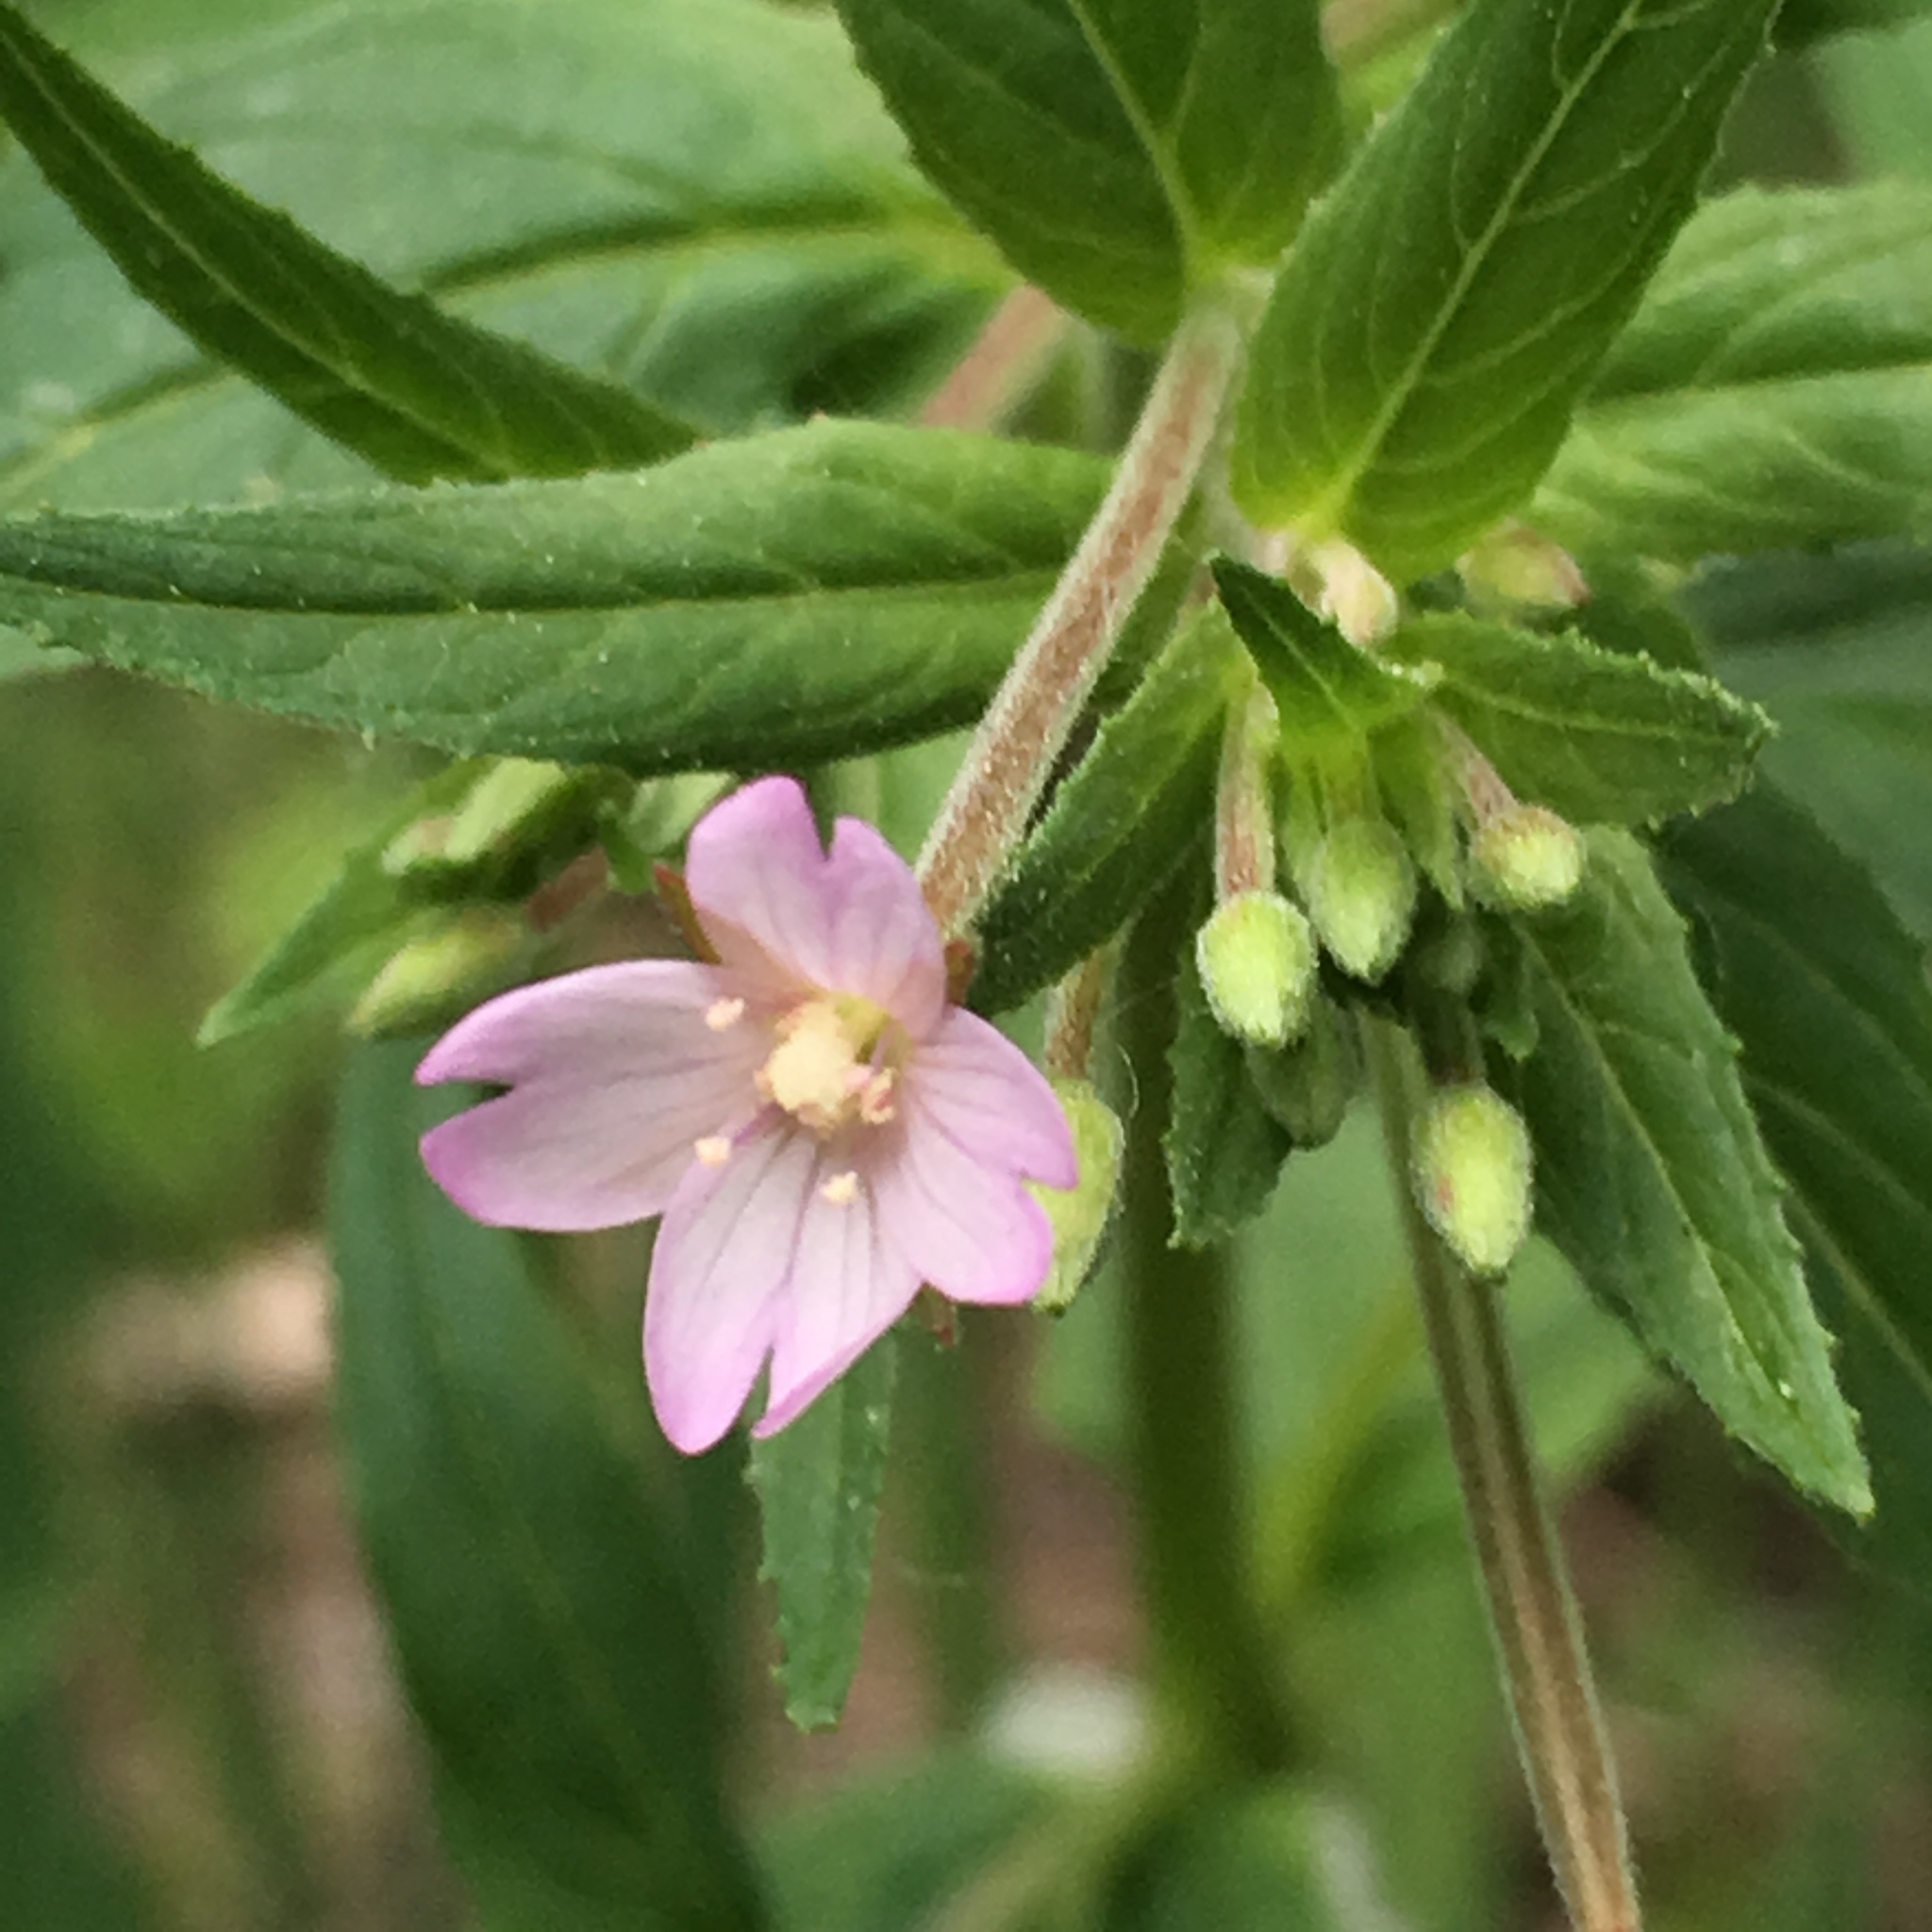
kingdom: Plantae
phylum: Tracheophyta
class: Magnoliopsida
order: Myrtales
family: Onagraceae
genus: Epilobium
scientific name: Epilobium ciliatum
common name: American willowherb
